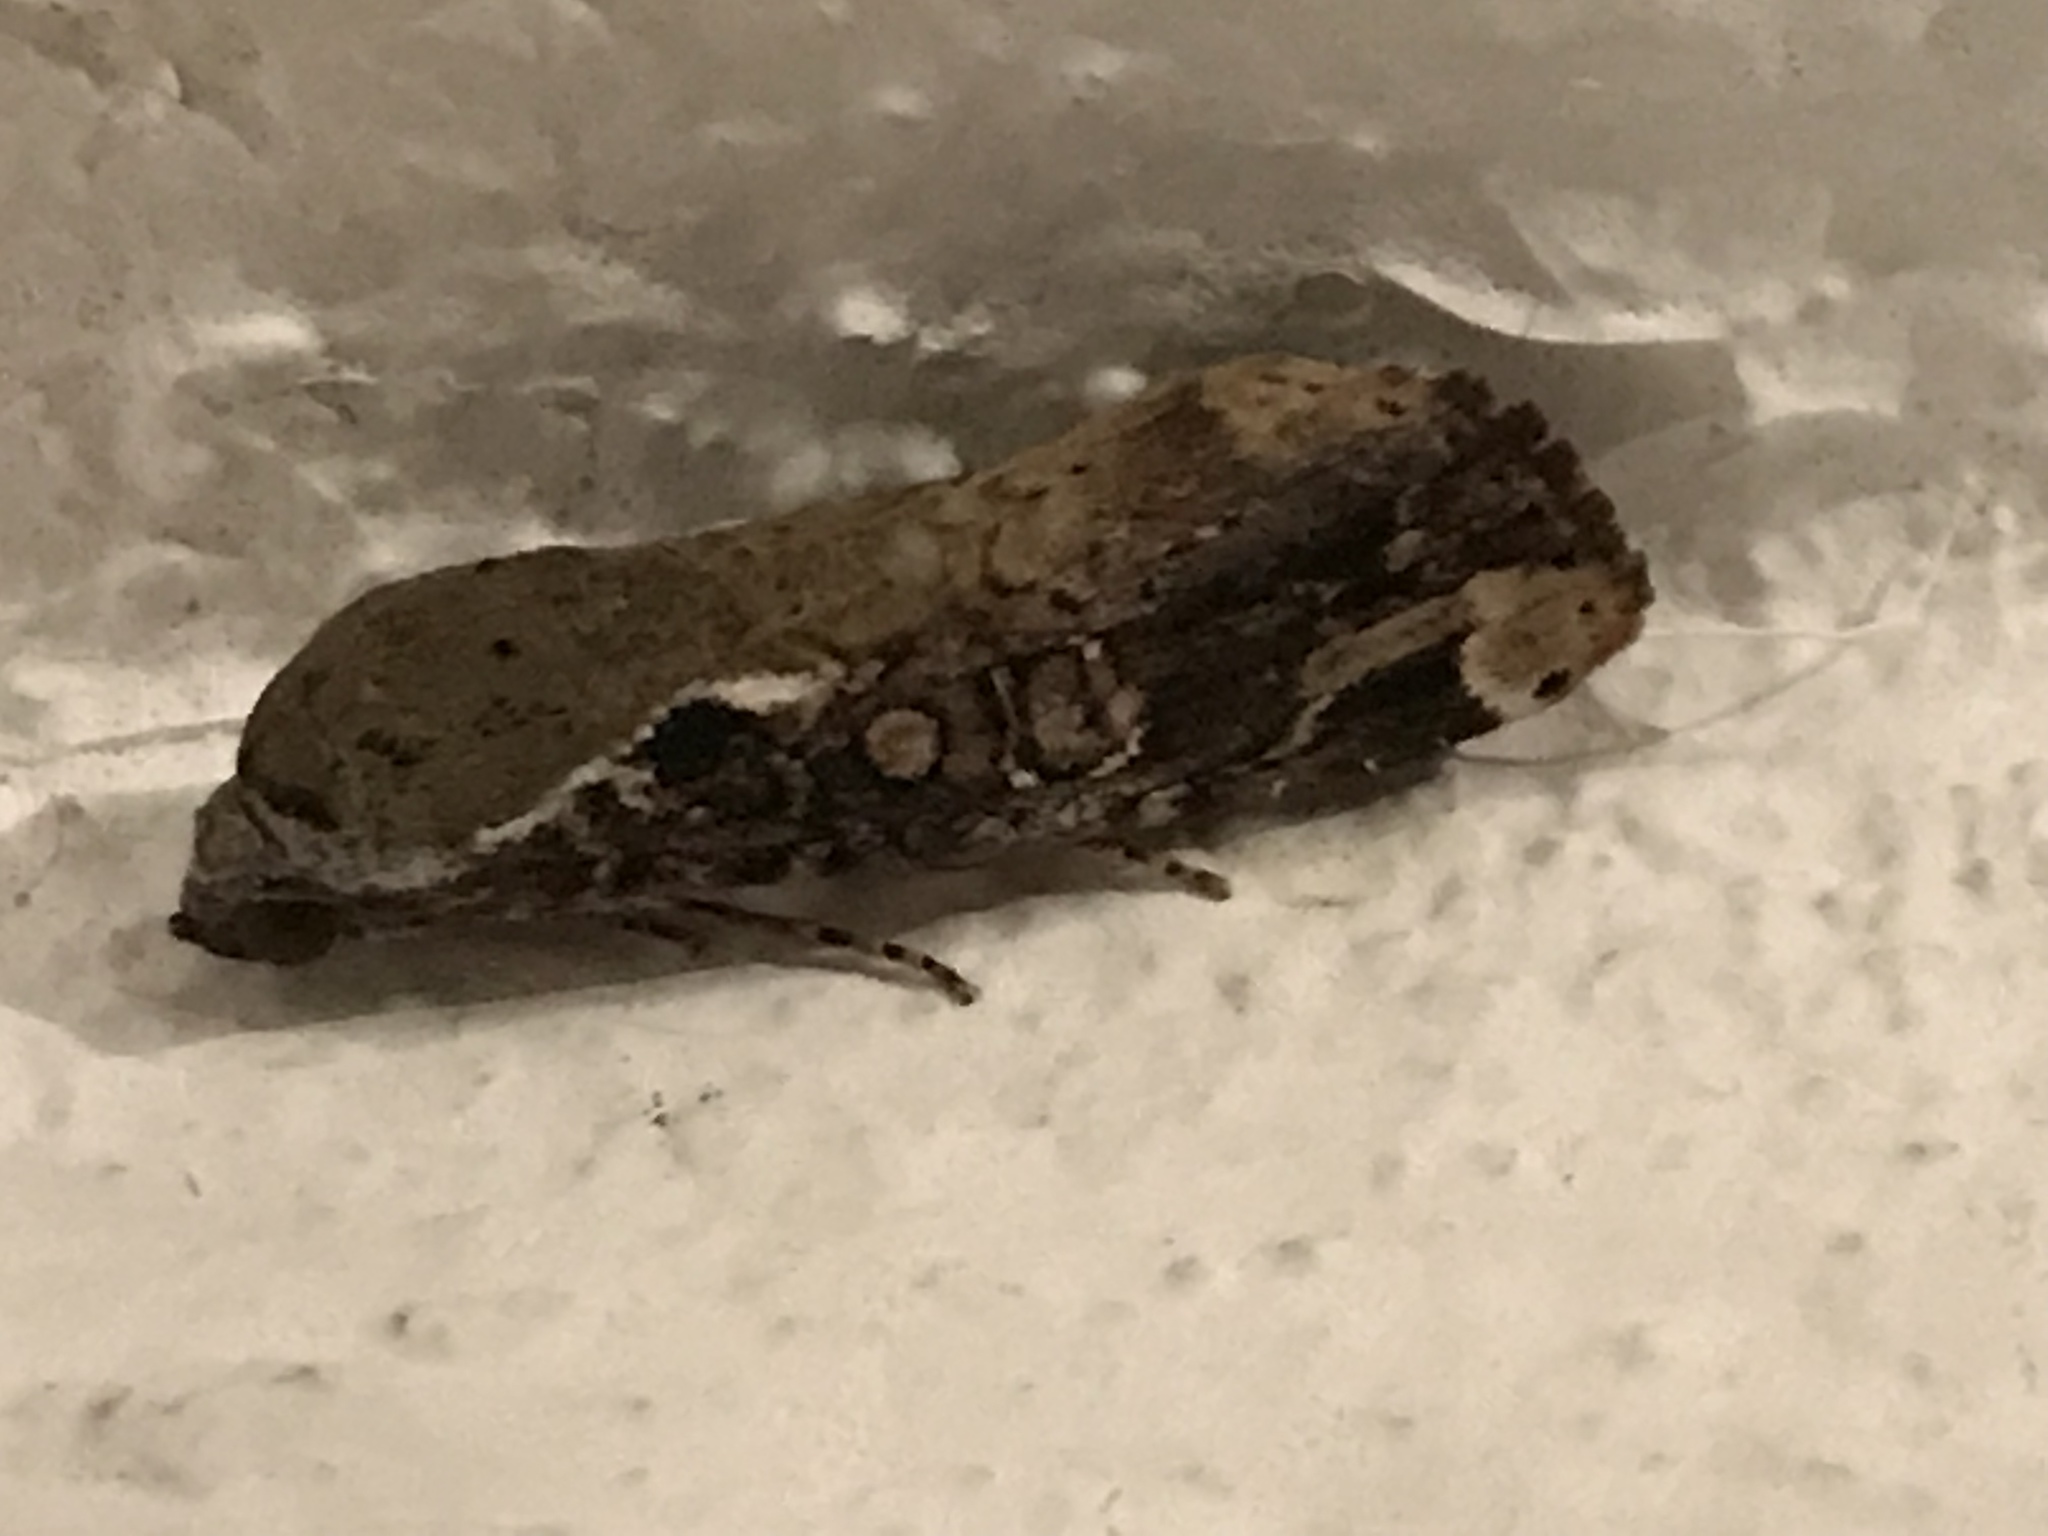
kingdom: Animalia
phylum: Arthropoda
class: Insecta
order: Lepidoptera
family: Noctuidae
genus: Magusa
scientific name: Magusa divaricata
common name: Orb narrow-winged moth
